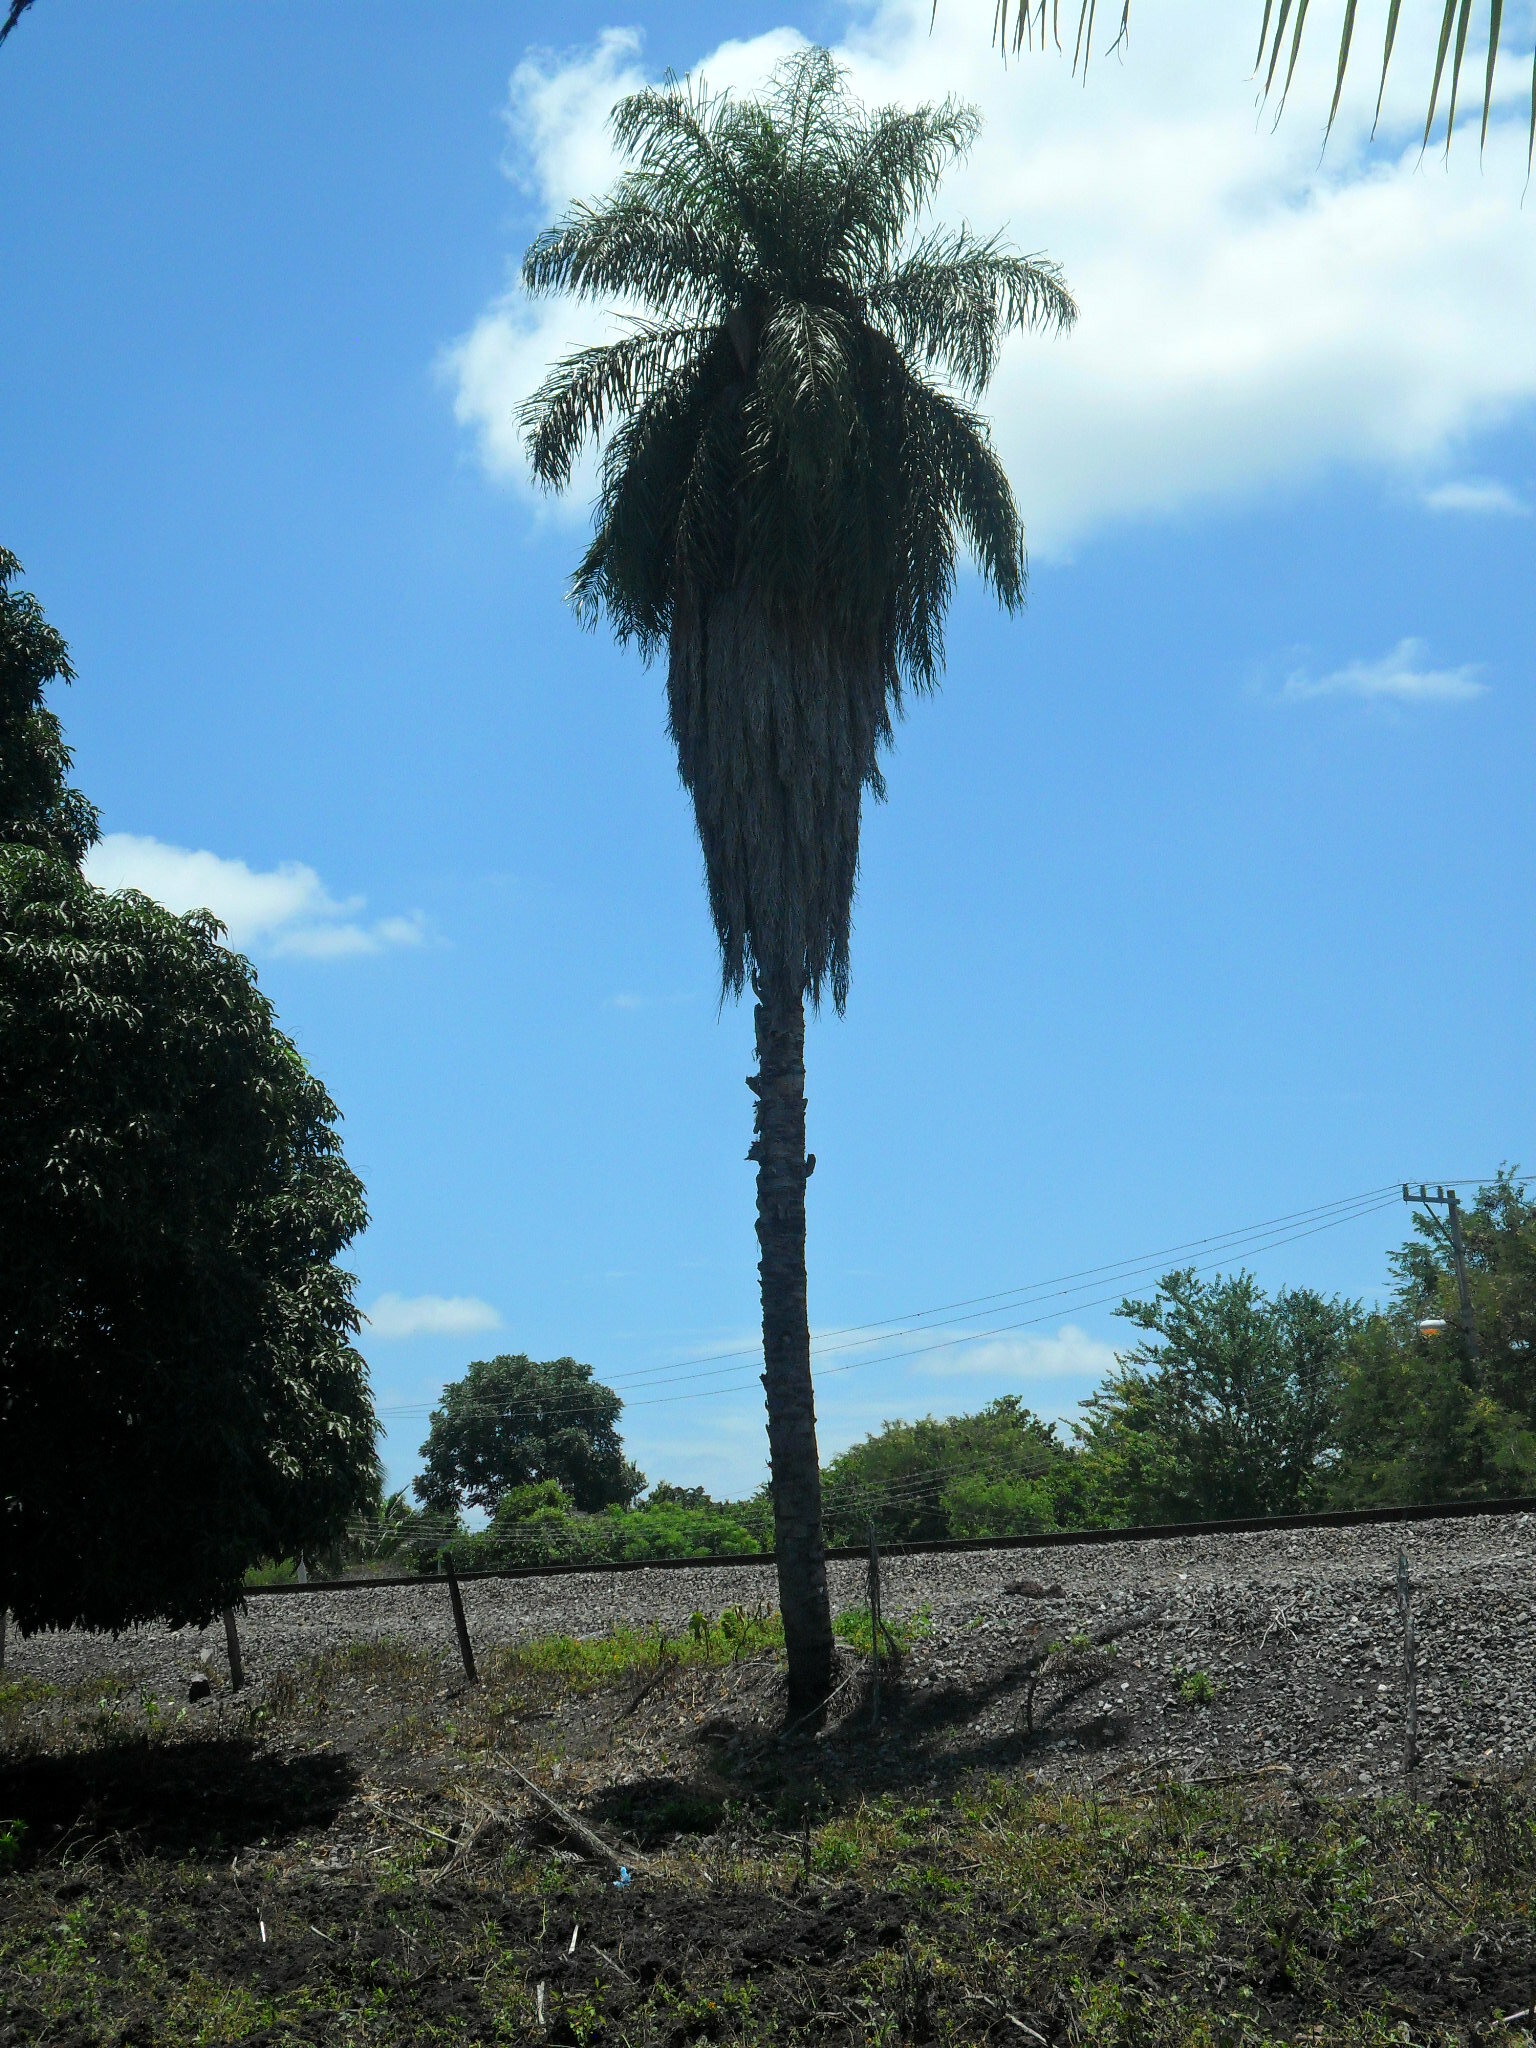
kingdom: Plantae
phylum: Tracheophyta
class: Liliopsida
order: Arecales
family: Arecaceae
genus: Acrocomia
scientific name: Acrocomia aculeata
